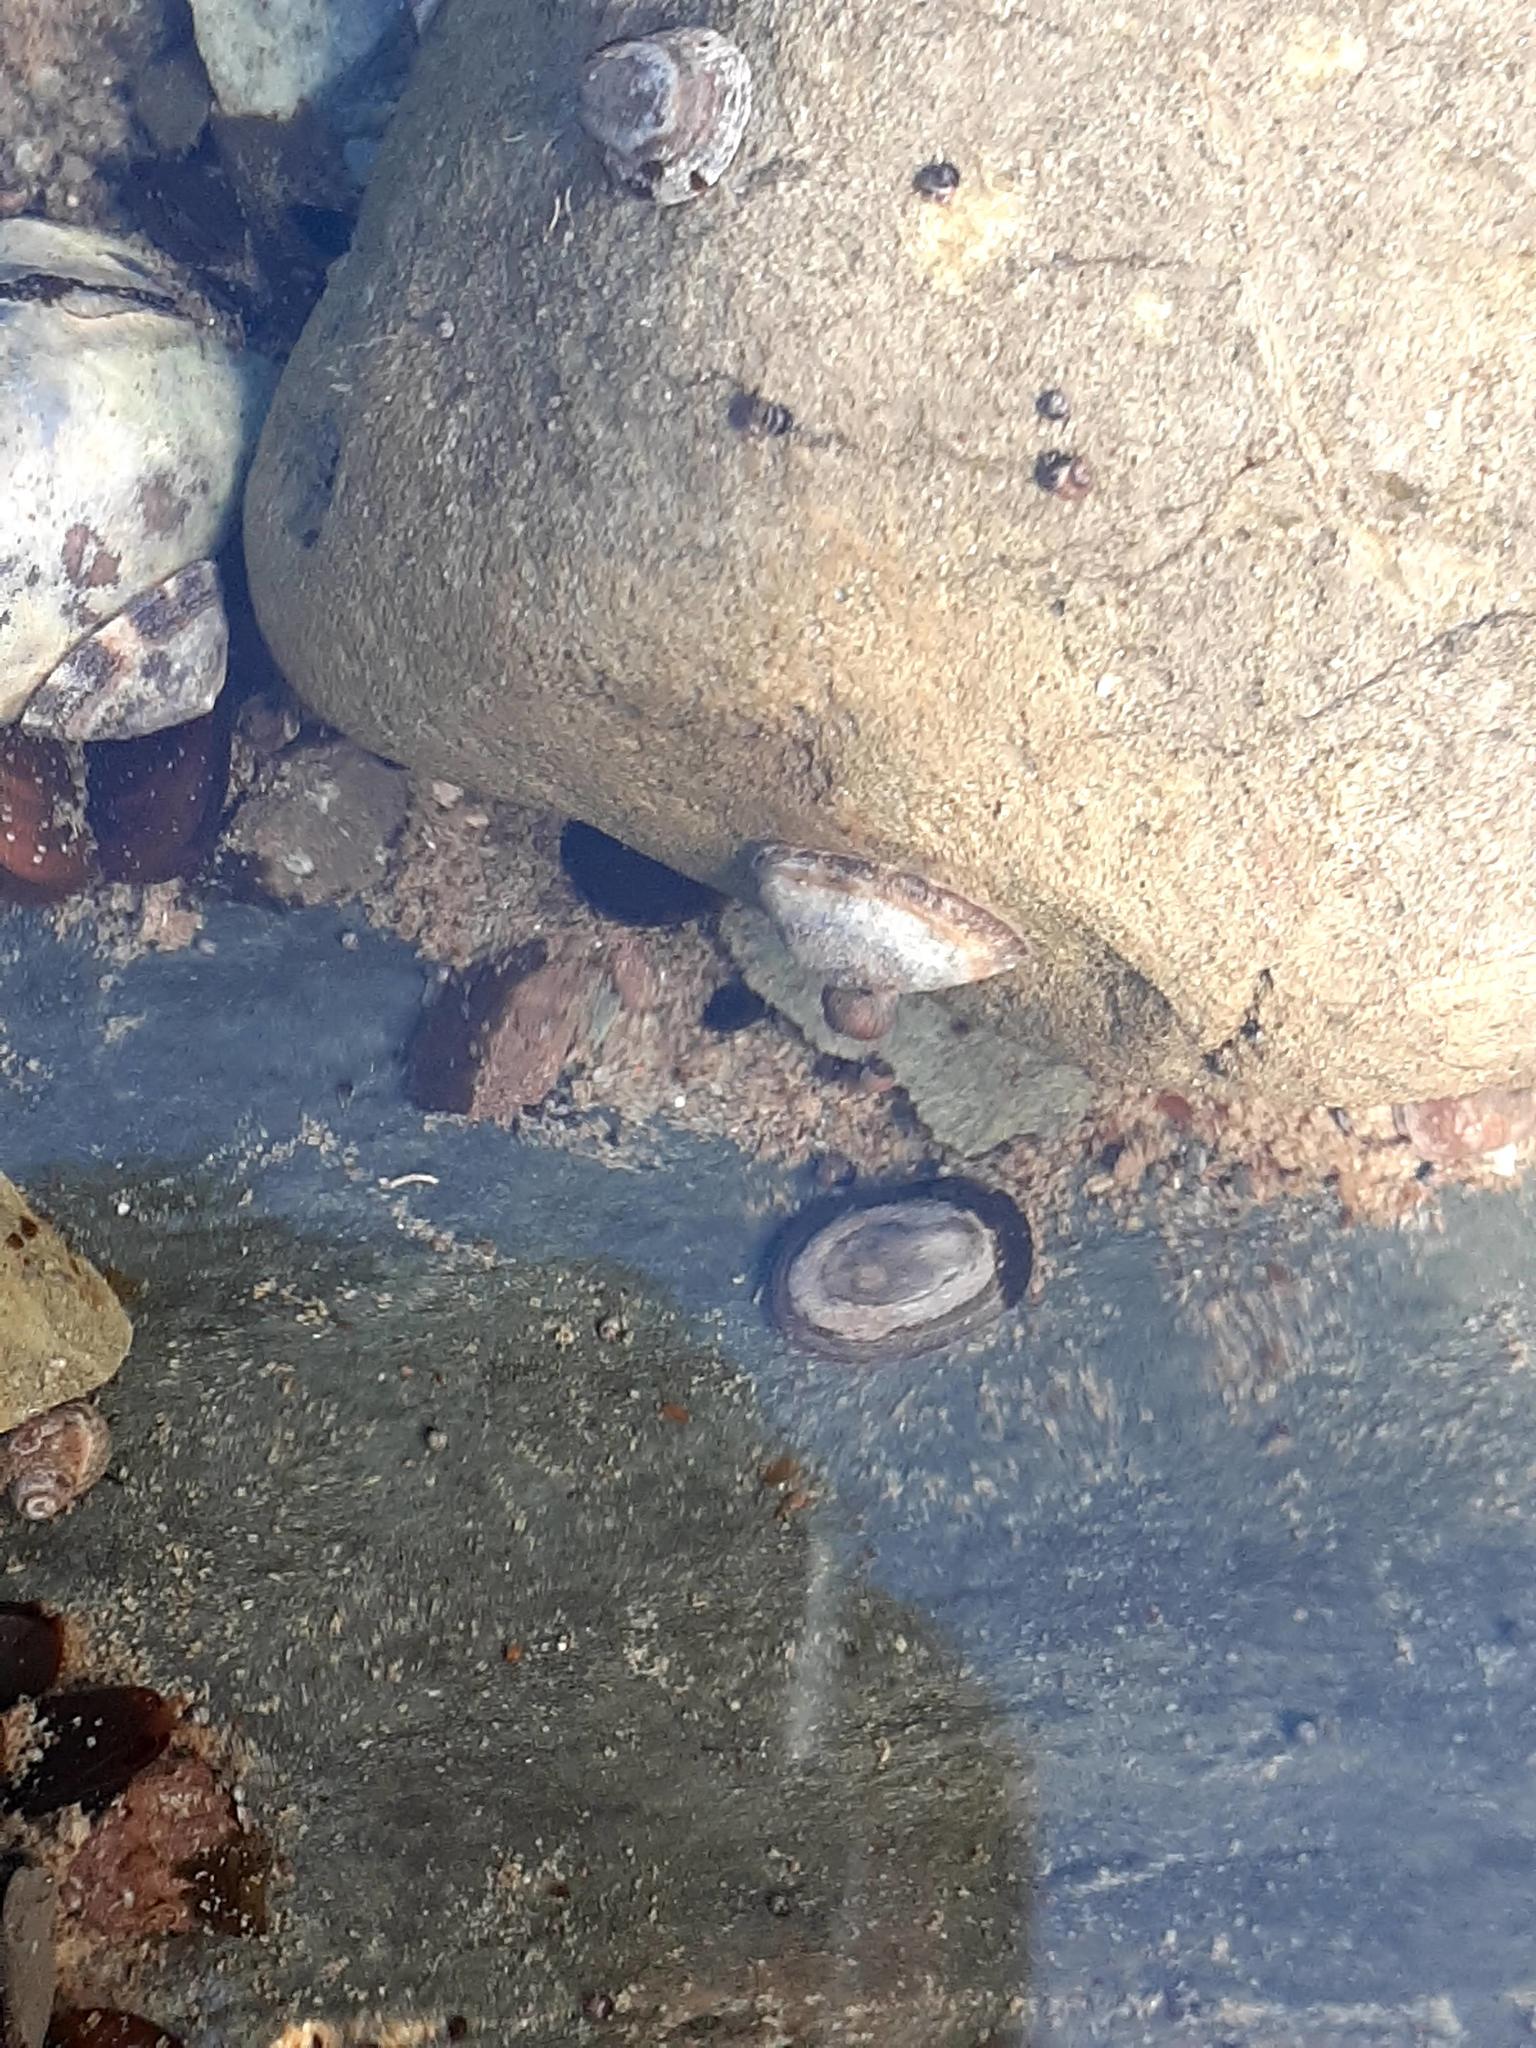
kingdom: Animalia
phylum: Mollusca
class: Gastropoda
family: Lottiidae
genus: Testudinalia
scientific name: Testudinalia testudinalis
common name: Common tortoiseshell limpet
